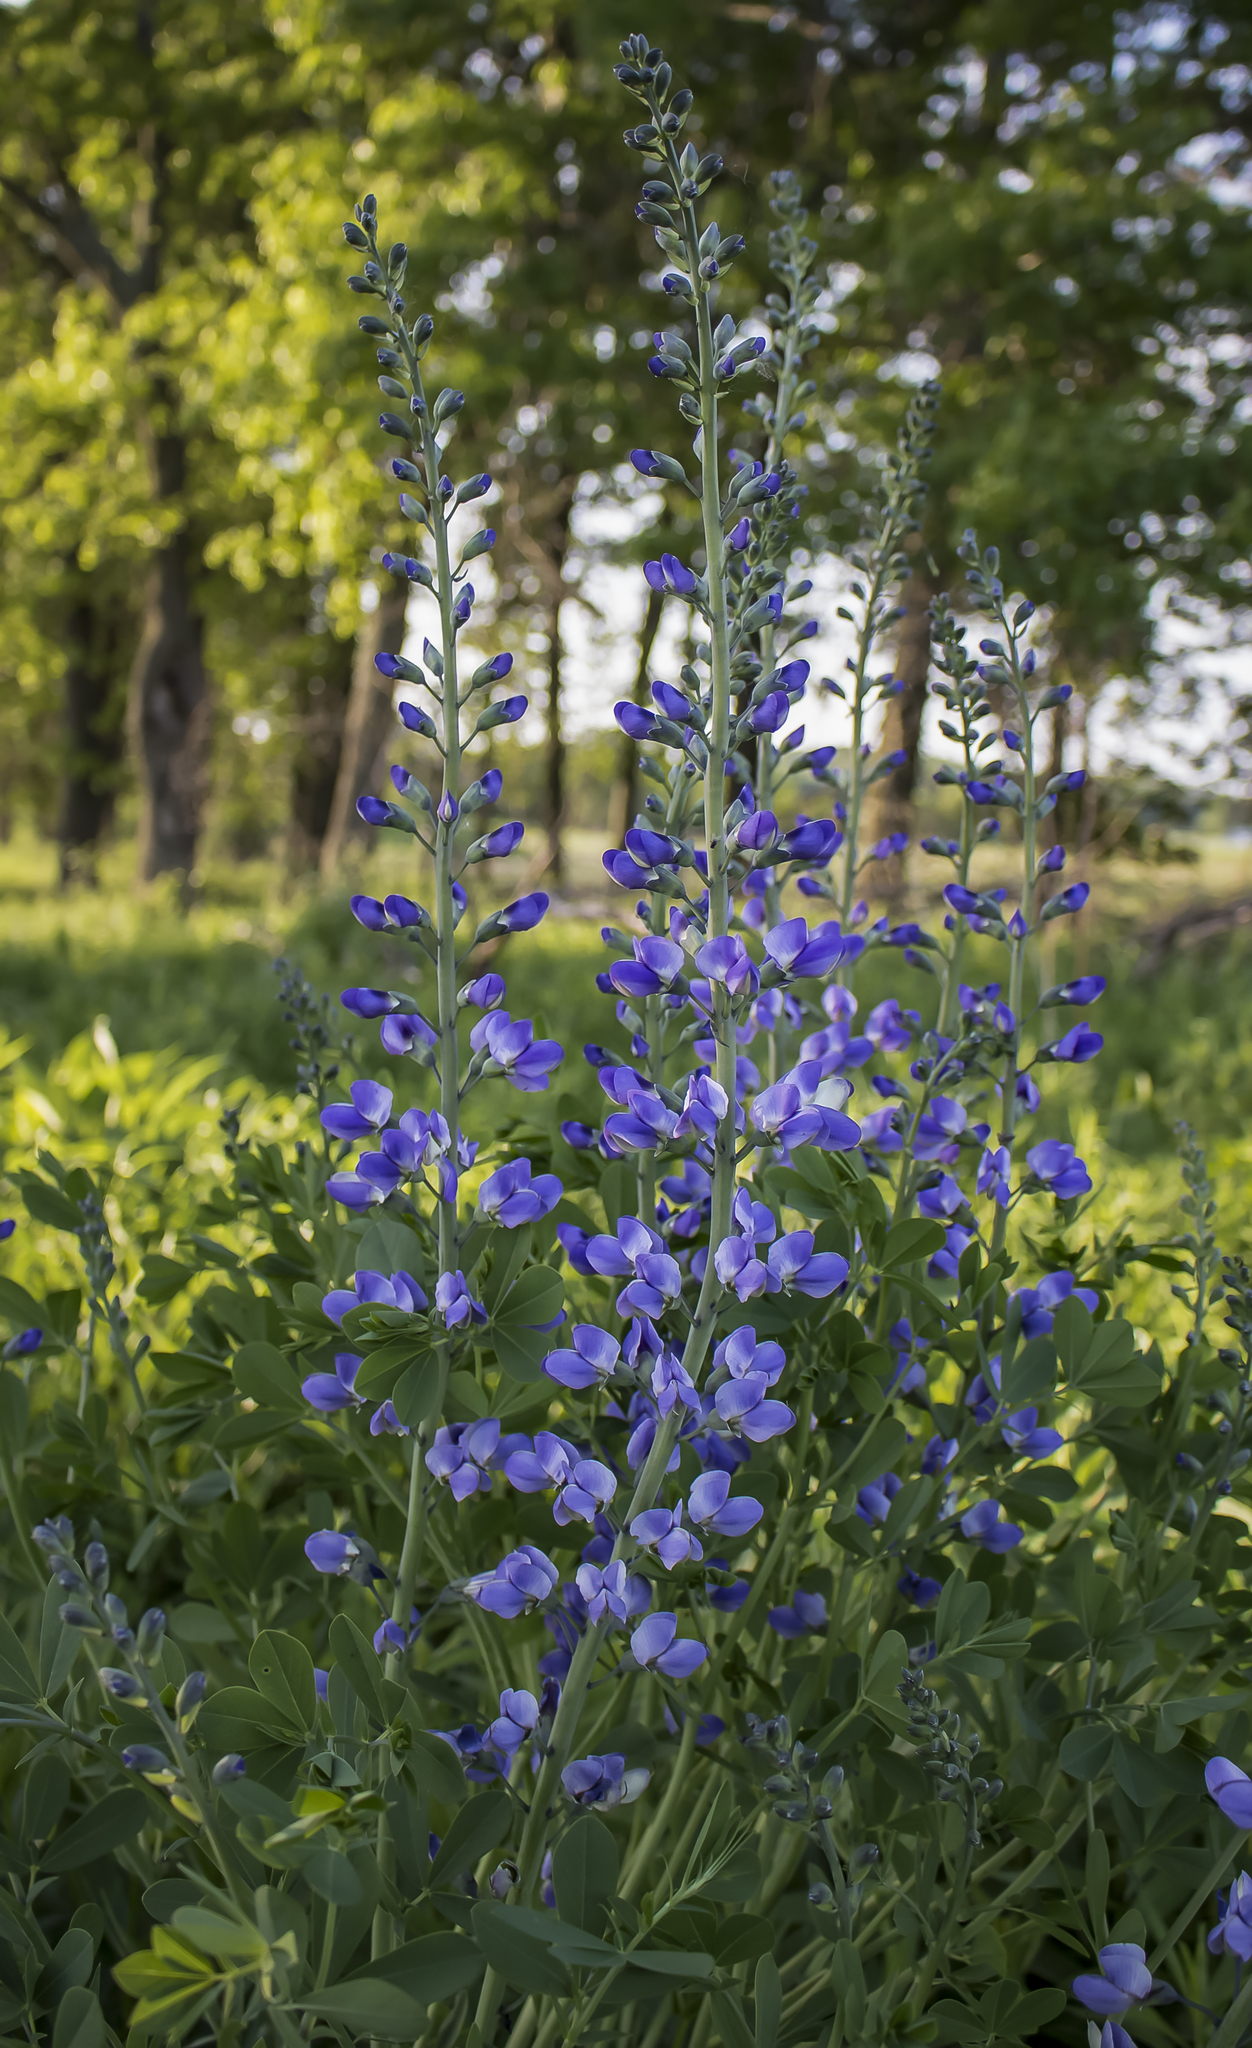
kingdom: Plantae
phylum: Tracheophyta
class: Magnoliopsida
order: Fabales
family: Fabaceae
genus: Baptisia
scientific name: Baptisia australis
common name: Blue false indigo
